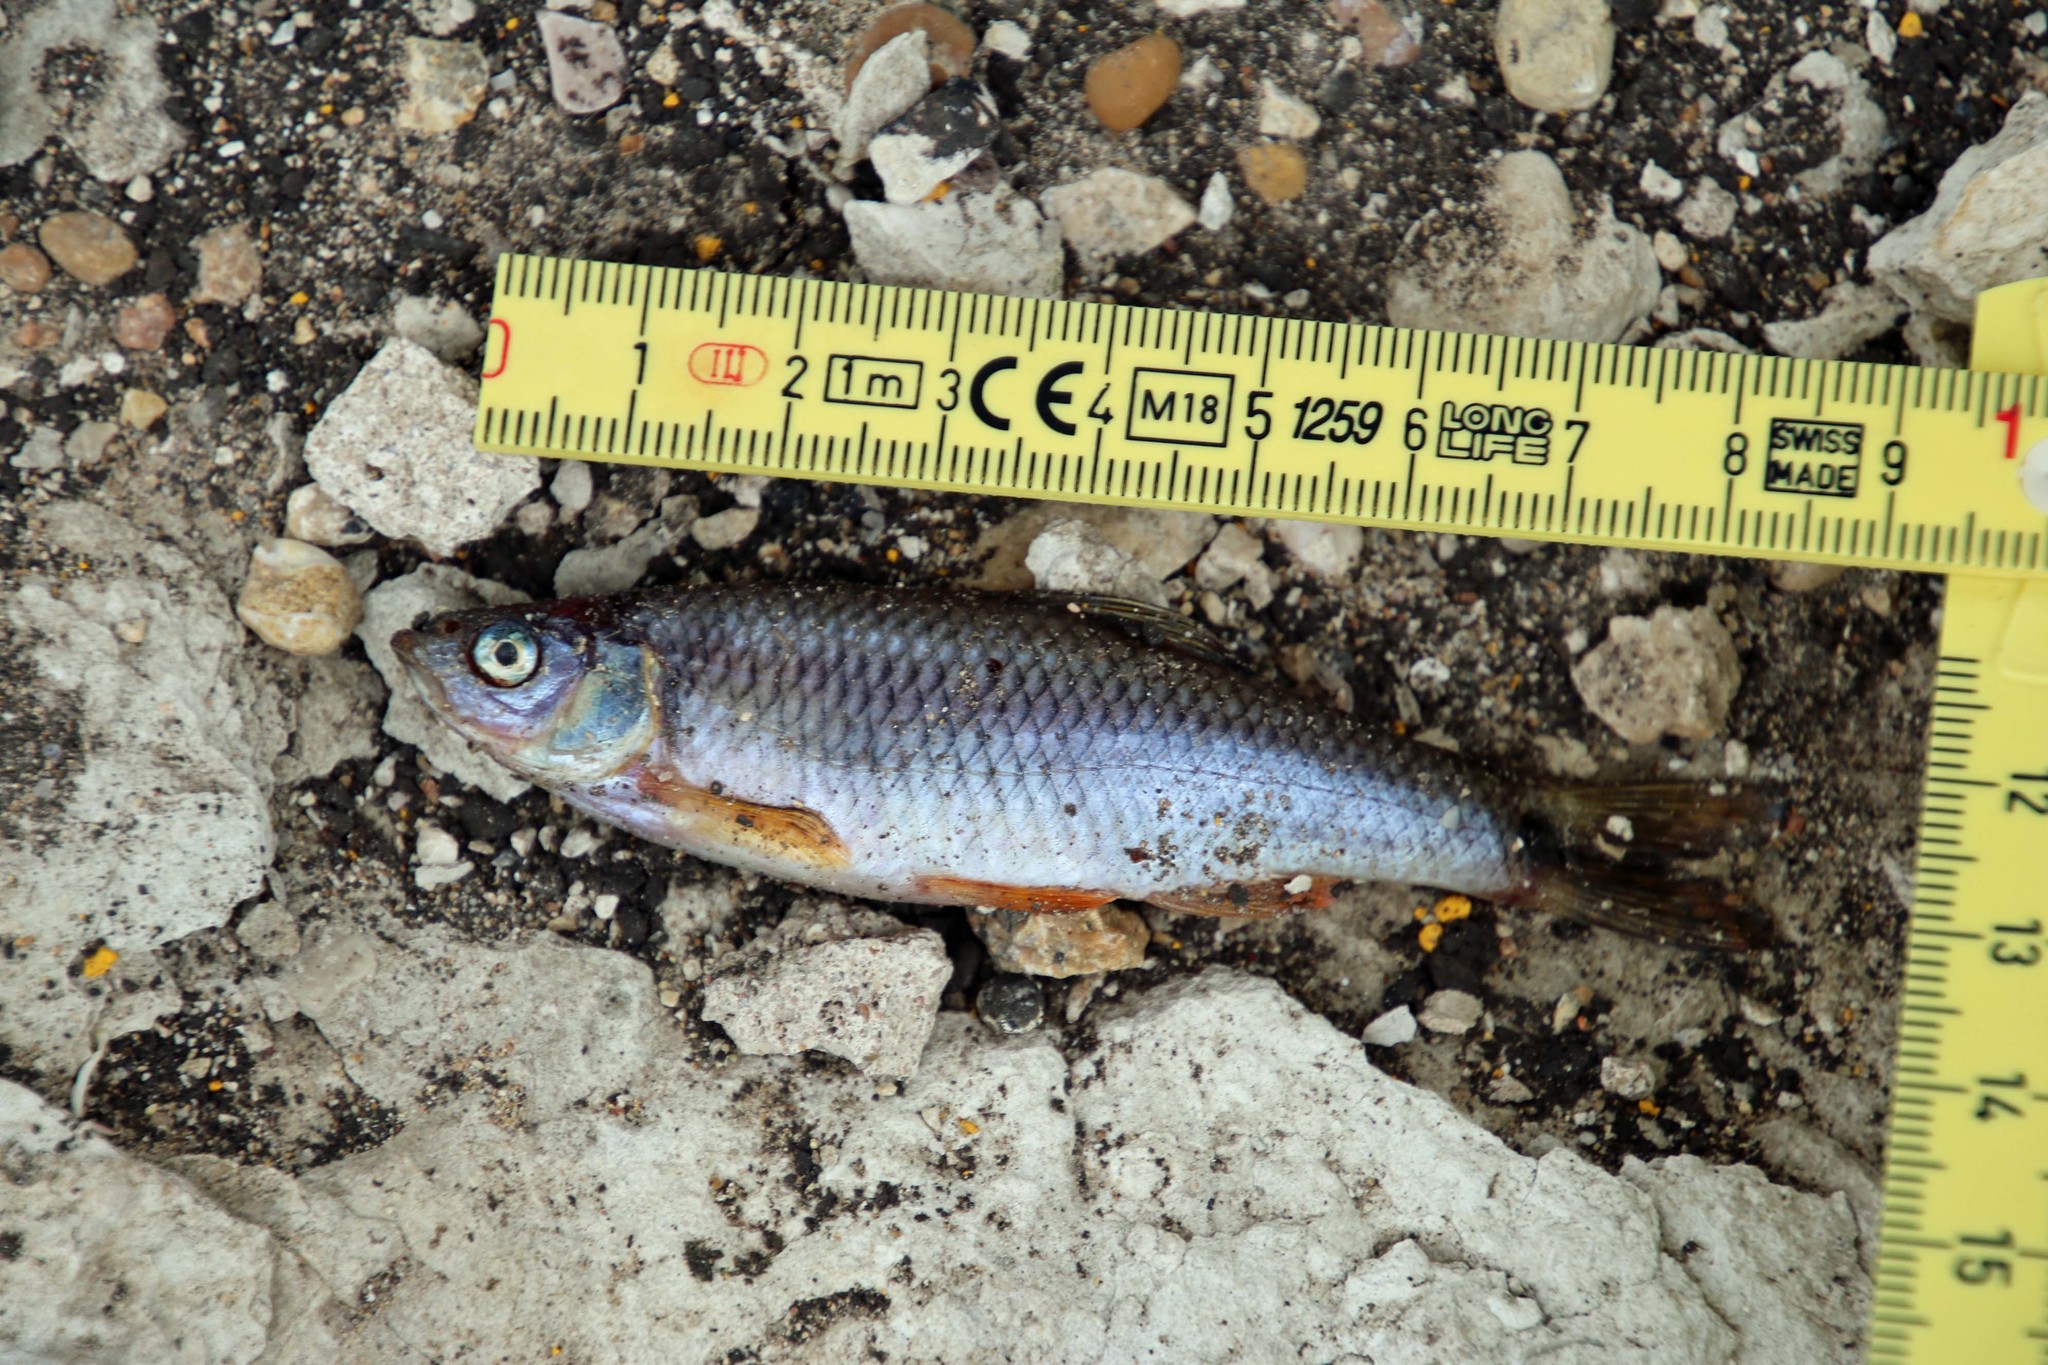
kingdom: Animalia
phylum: Chordata
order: Cypriniformes
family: Cyprinidae
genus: Cyprinella
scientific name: Cyprinella venusta
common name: Blacktail shiner
